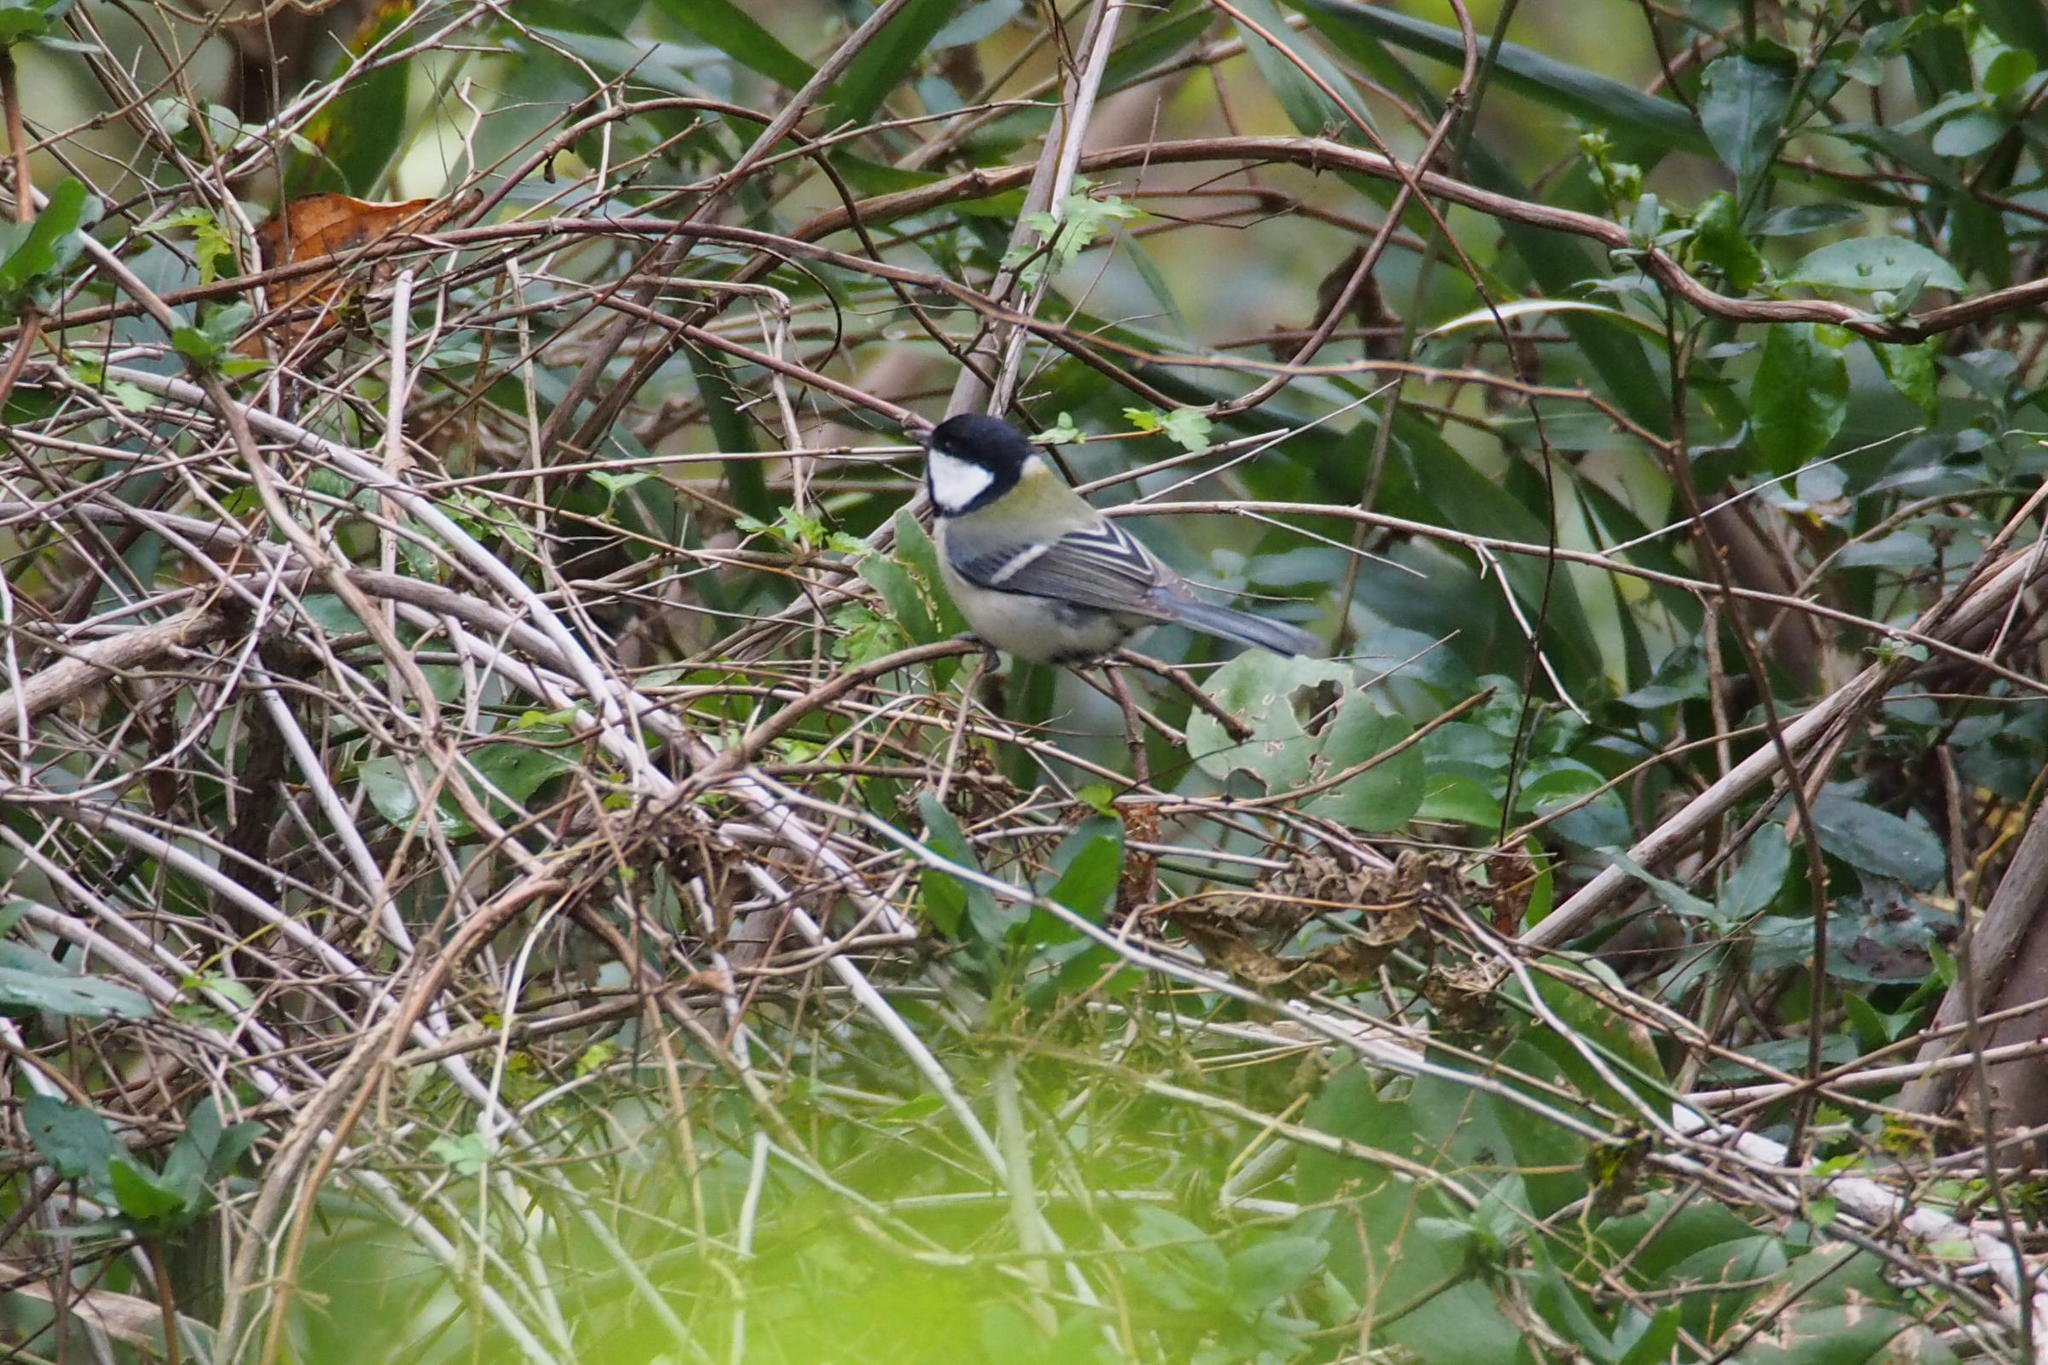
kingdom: Animalia
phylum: Chordata
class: Aves
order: Passeriformes
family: Paridae
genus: Parus
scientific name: Parus minor
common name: Japanese tit
